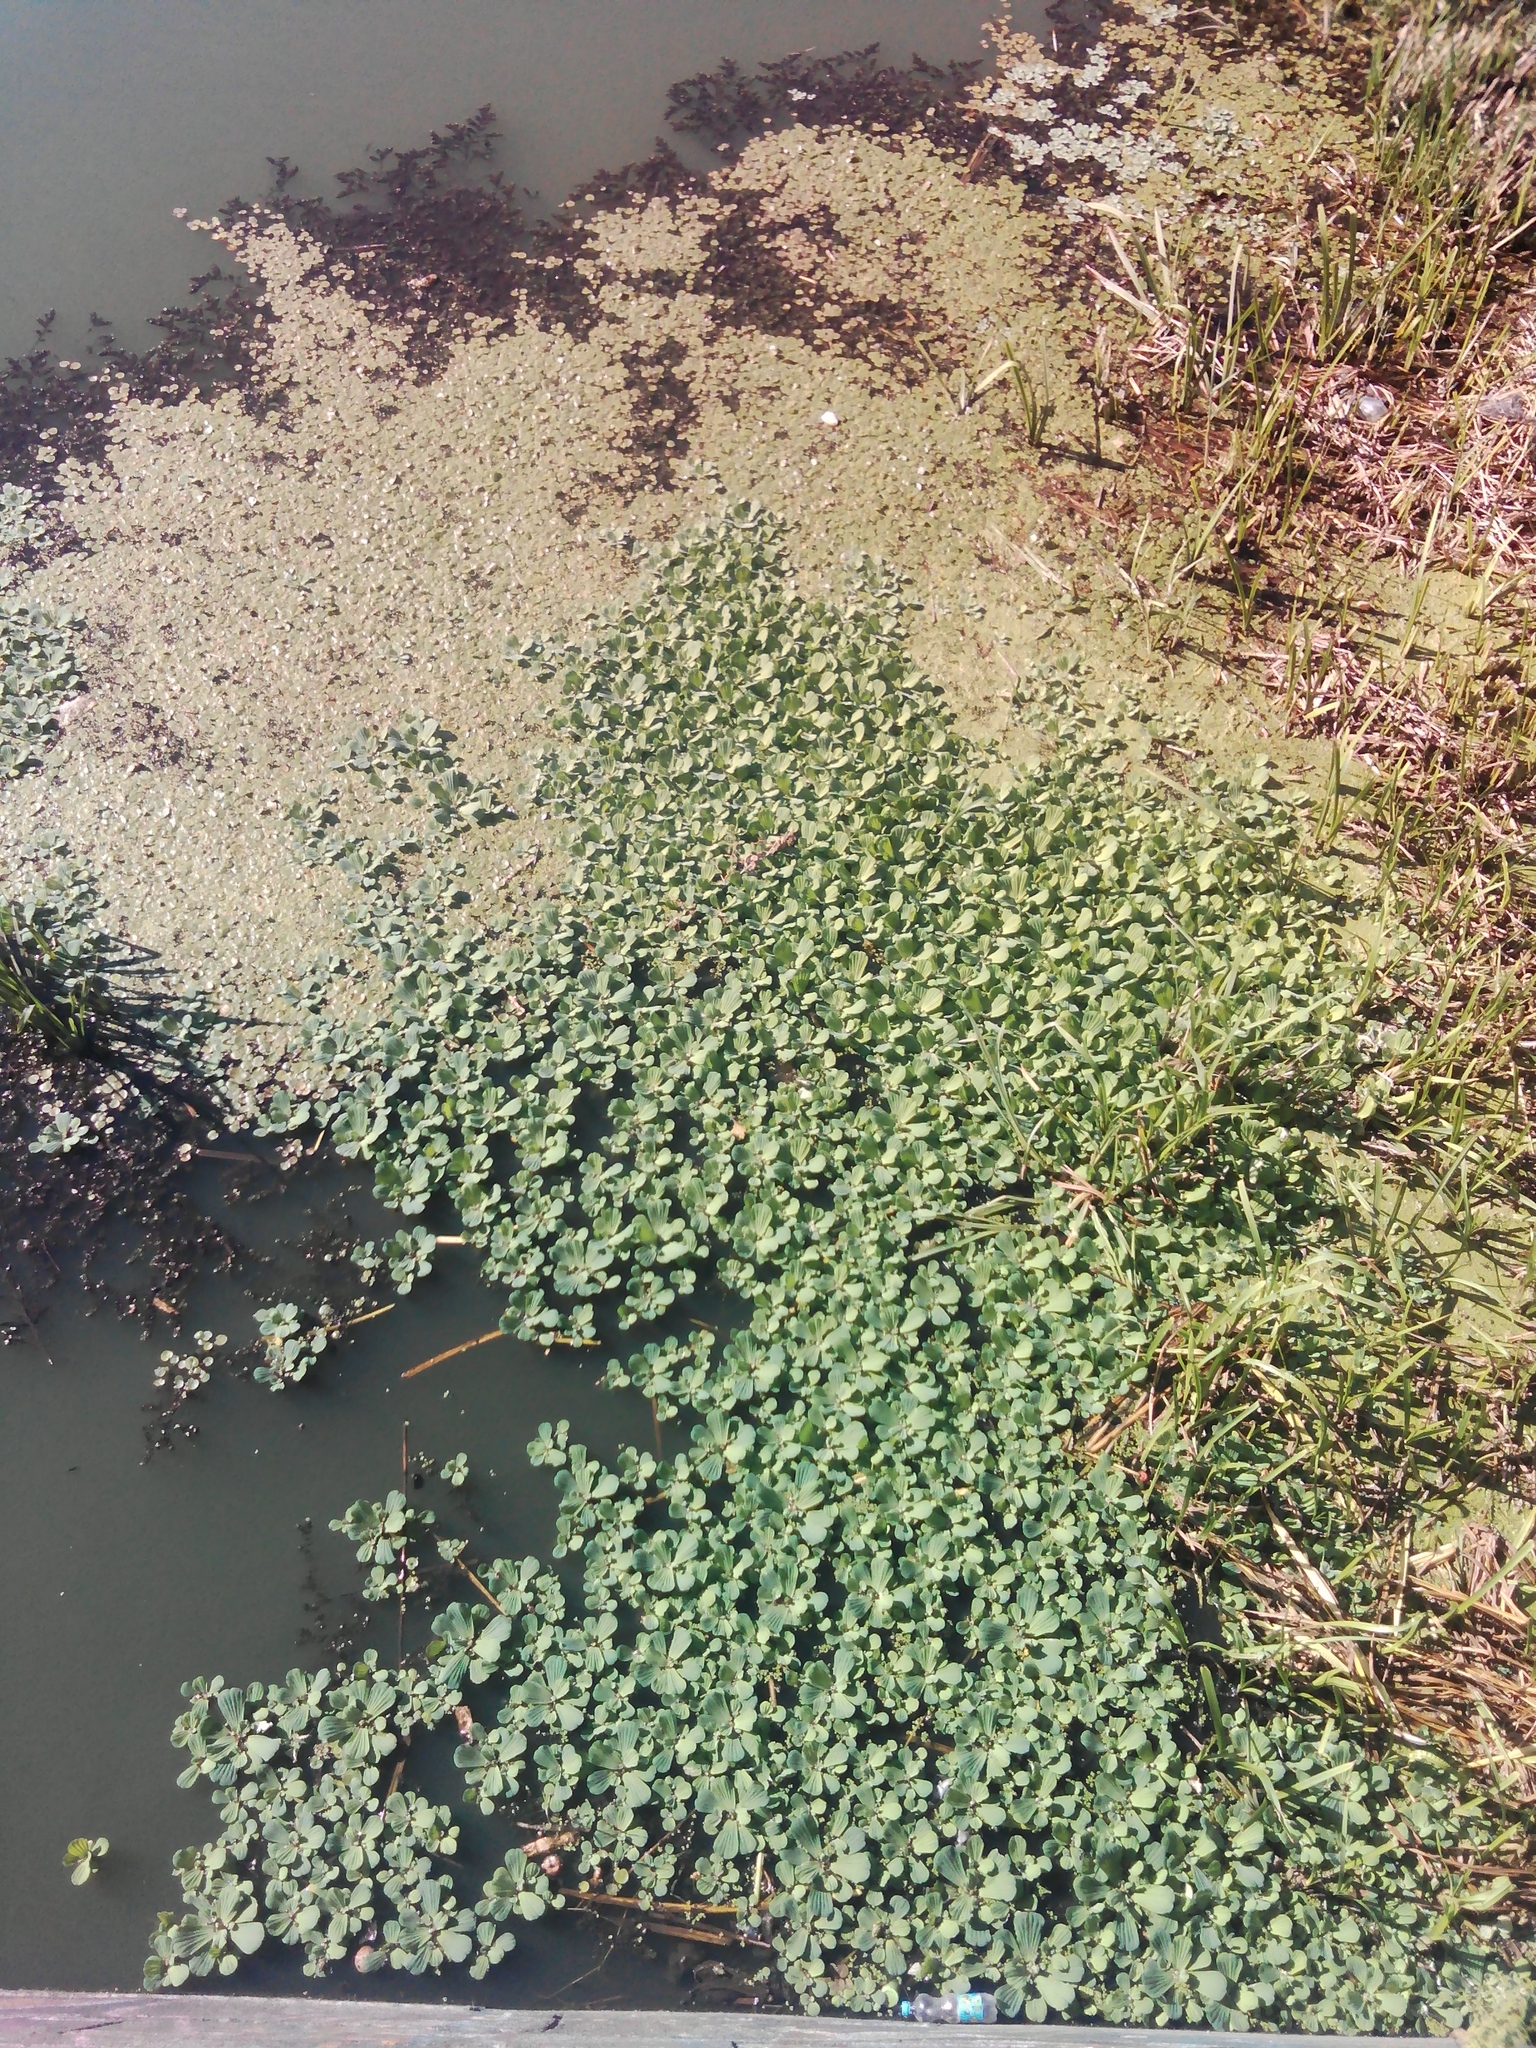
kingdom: Plantae
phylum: Tracheophyta
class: Liliopsida
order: Alismatales
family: Araceae
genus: Pistia
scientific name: Pistia stratiotes
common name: Water lettuce
